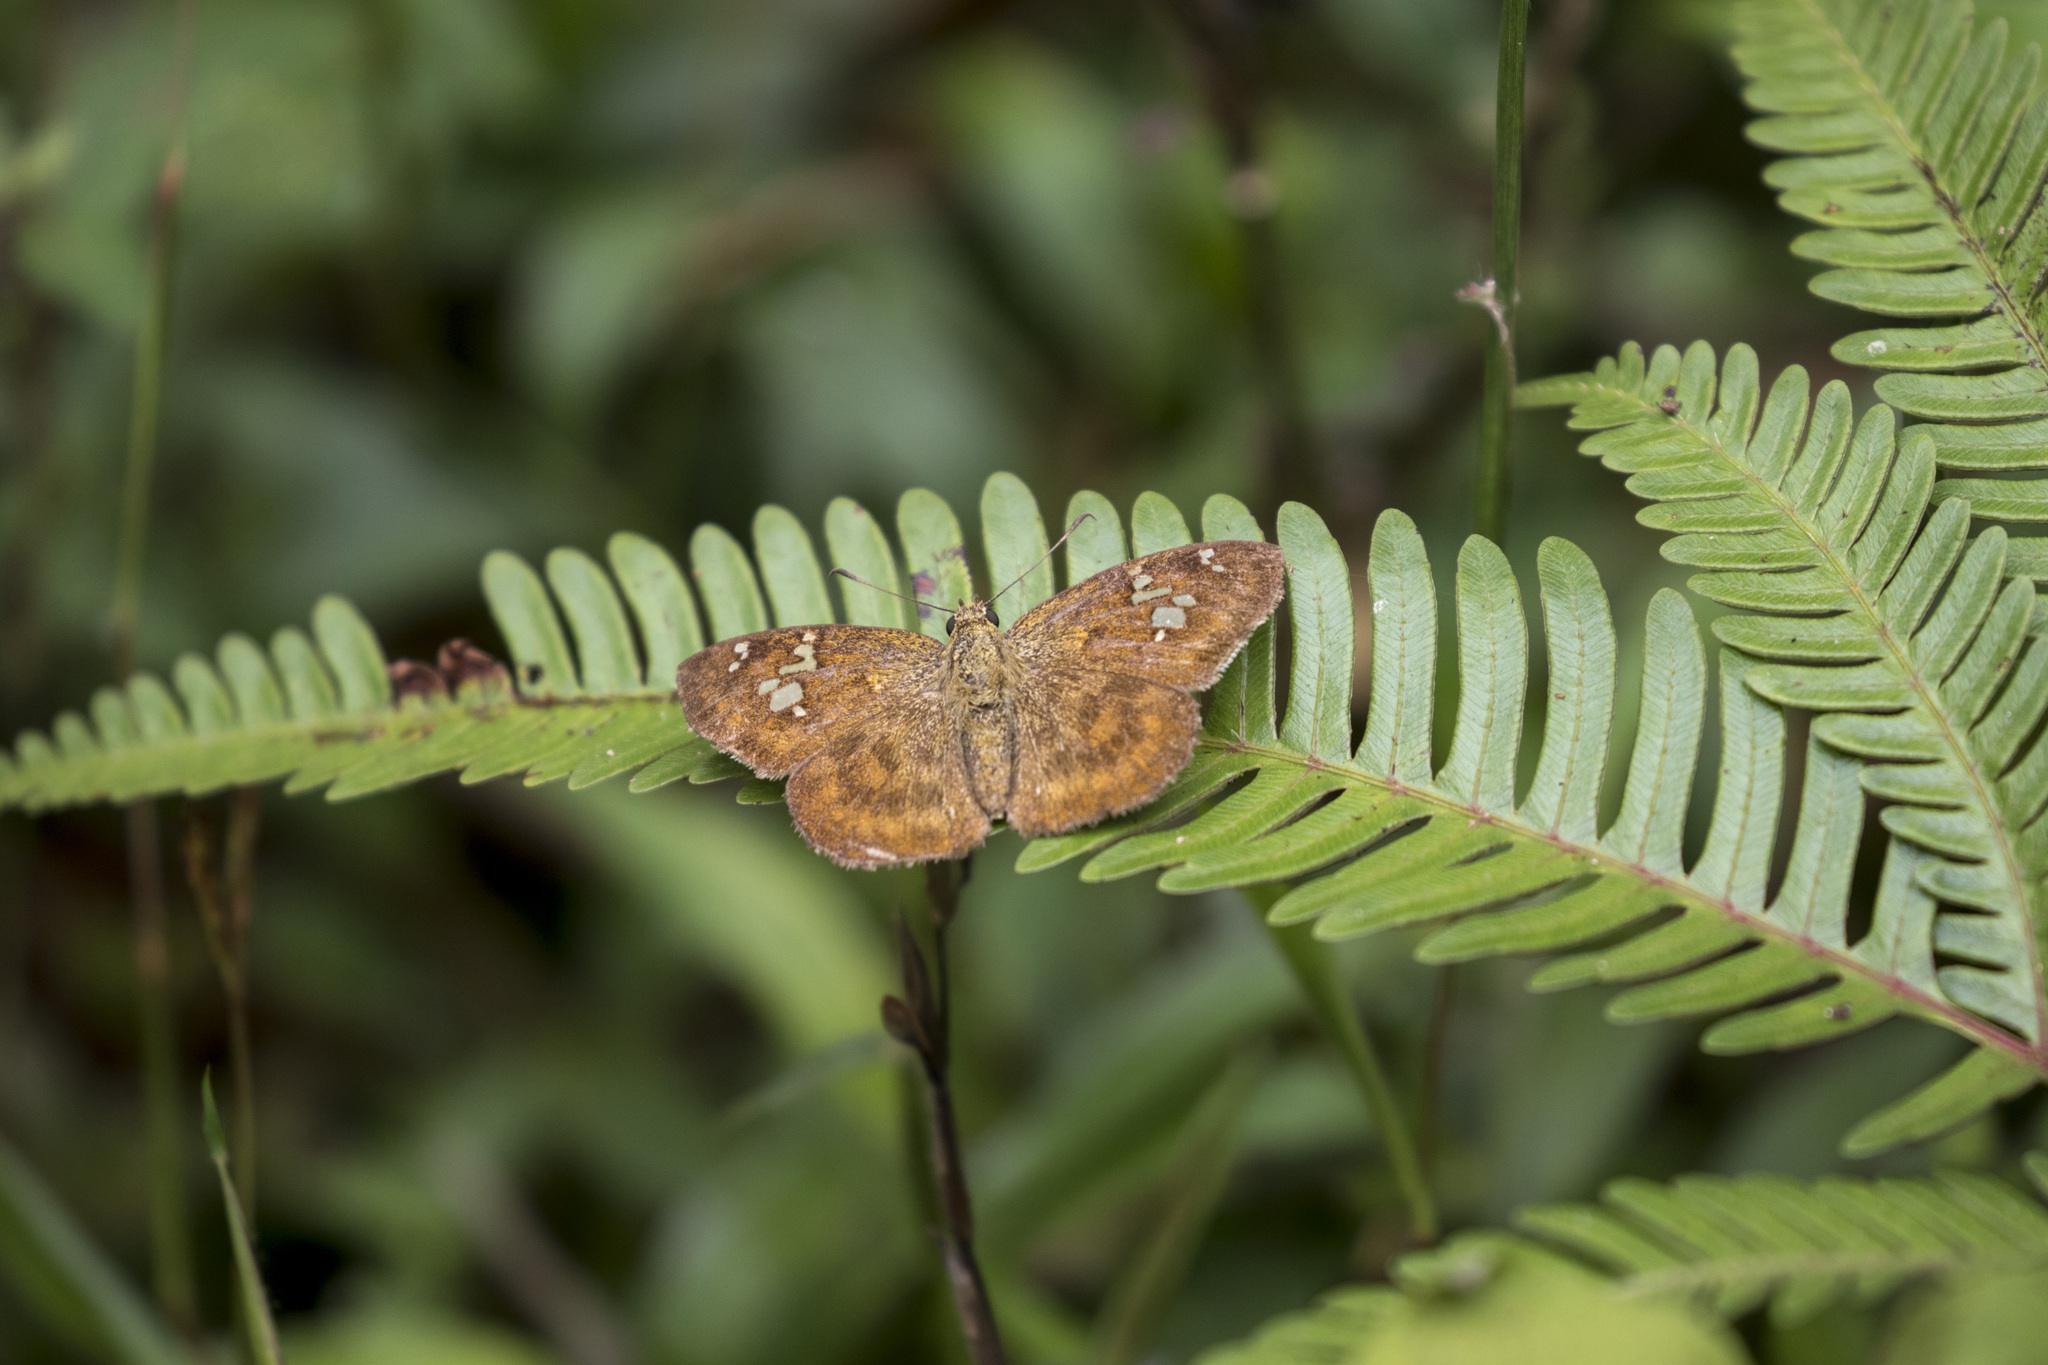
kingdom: Animalia
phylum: Arthropoda
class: Insecta
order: Lepidoptera
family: Hesperiidae
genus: Pseudocoladenia
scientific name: Pseudocoladenia dan
